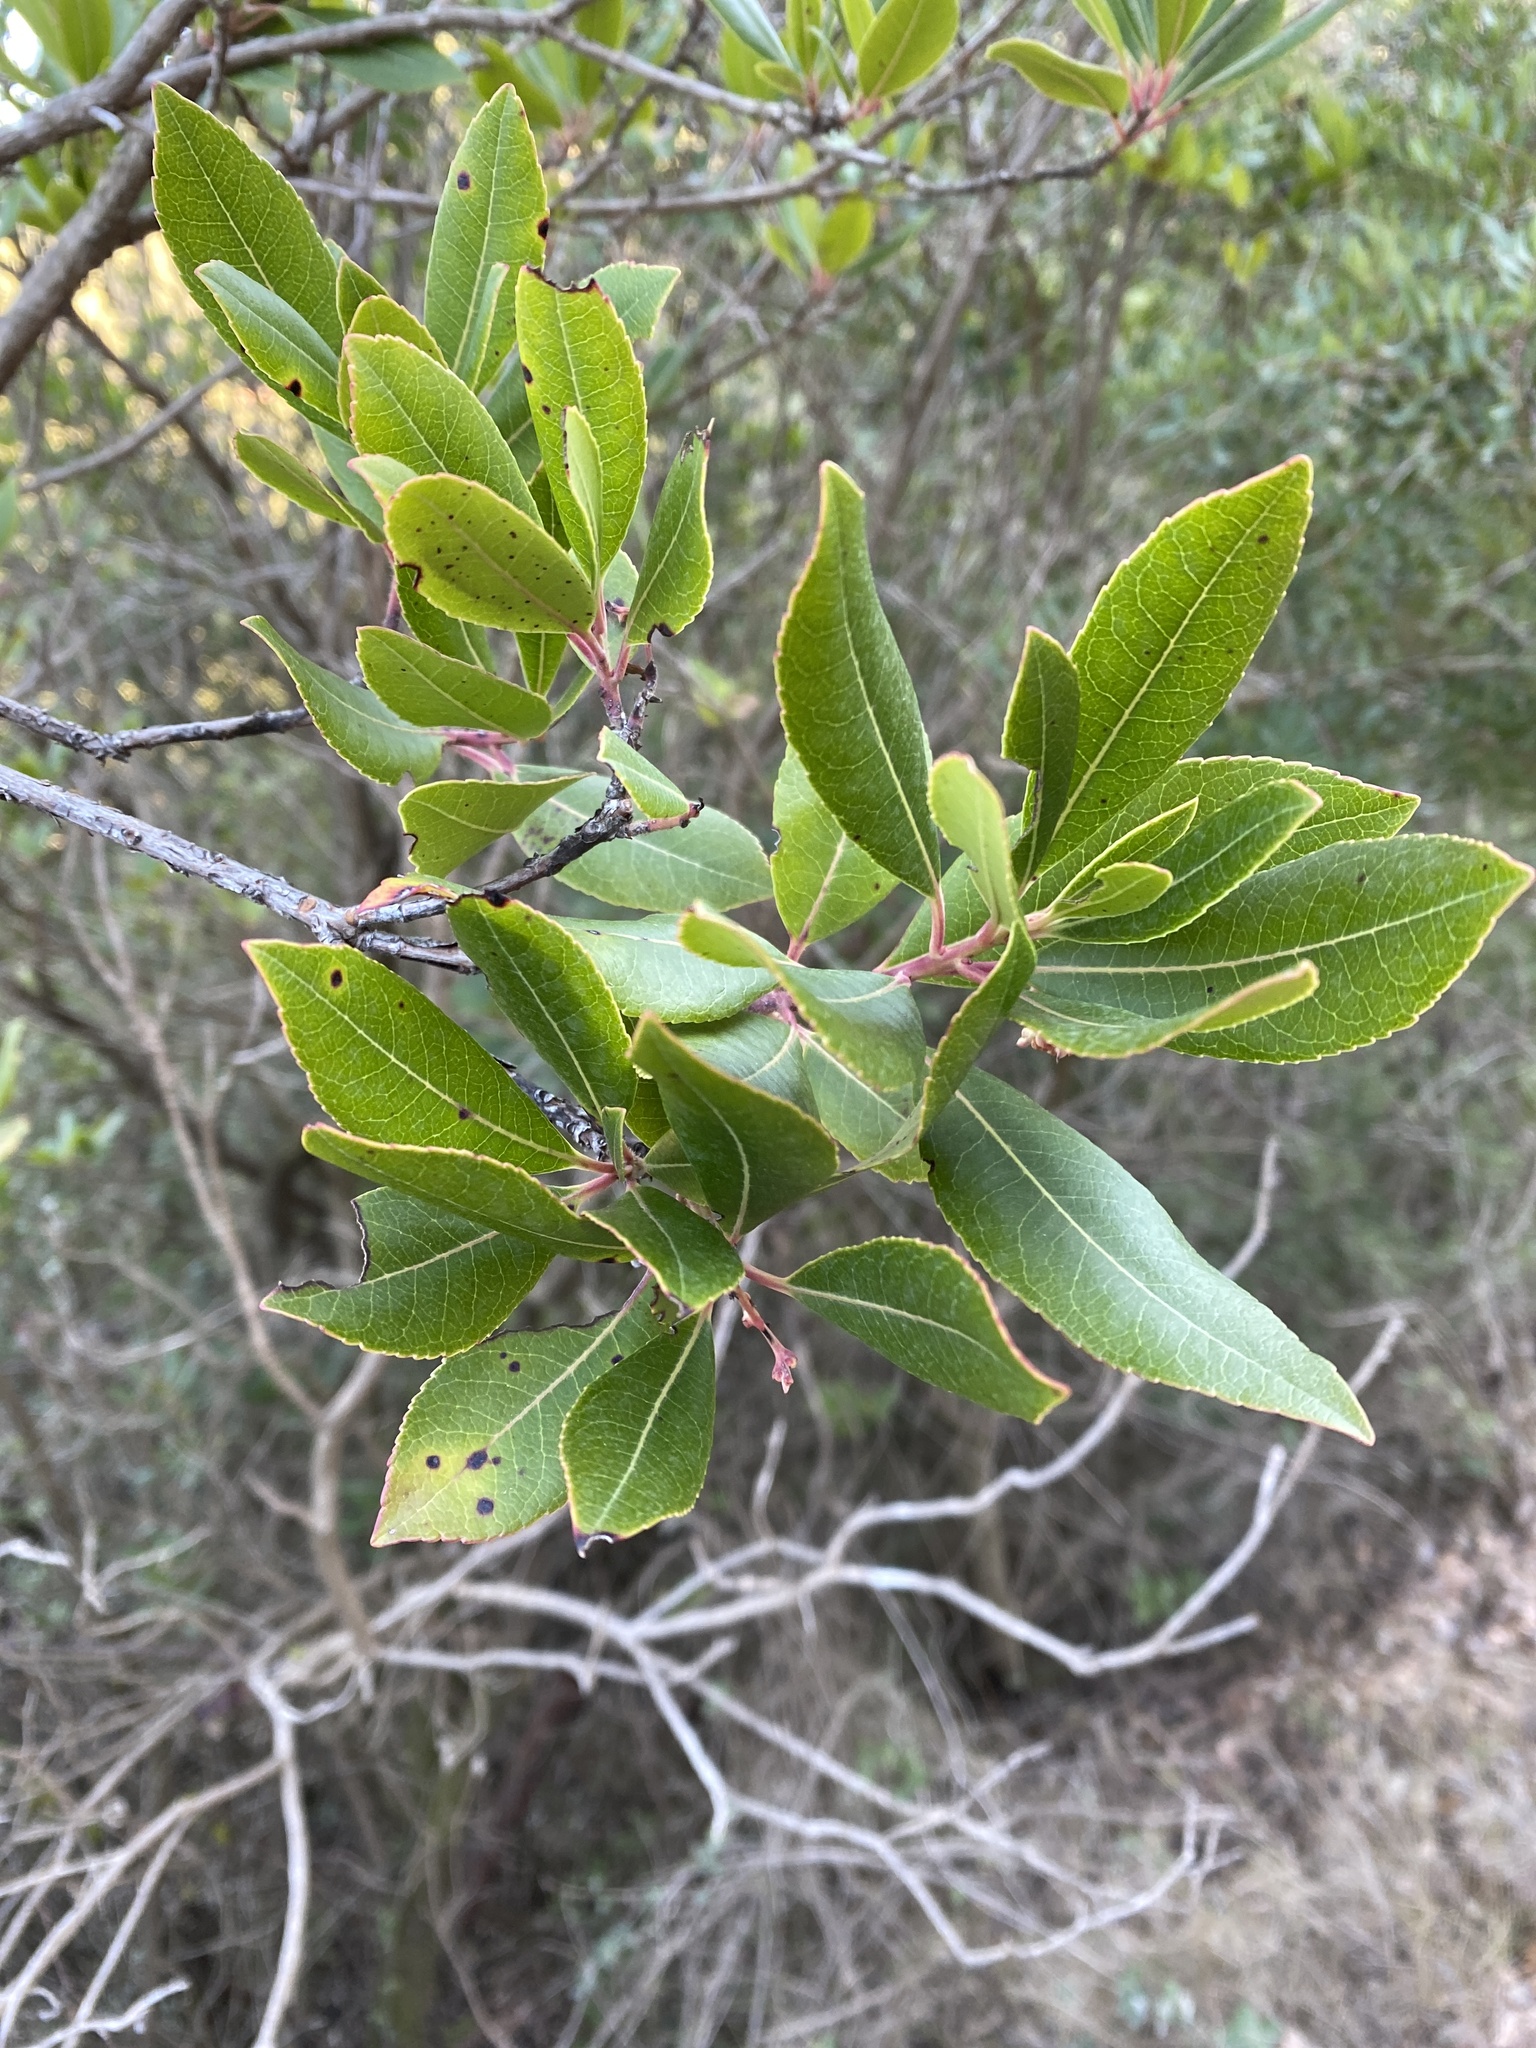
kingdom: Plantae
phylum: Tracheophyta
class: Magnoliopsida
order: Ericales
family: Ericaceae
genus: Arbutus
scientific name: Arbutus unedo
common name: Strawberry-tree
